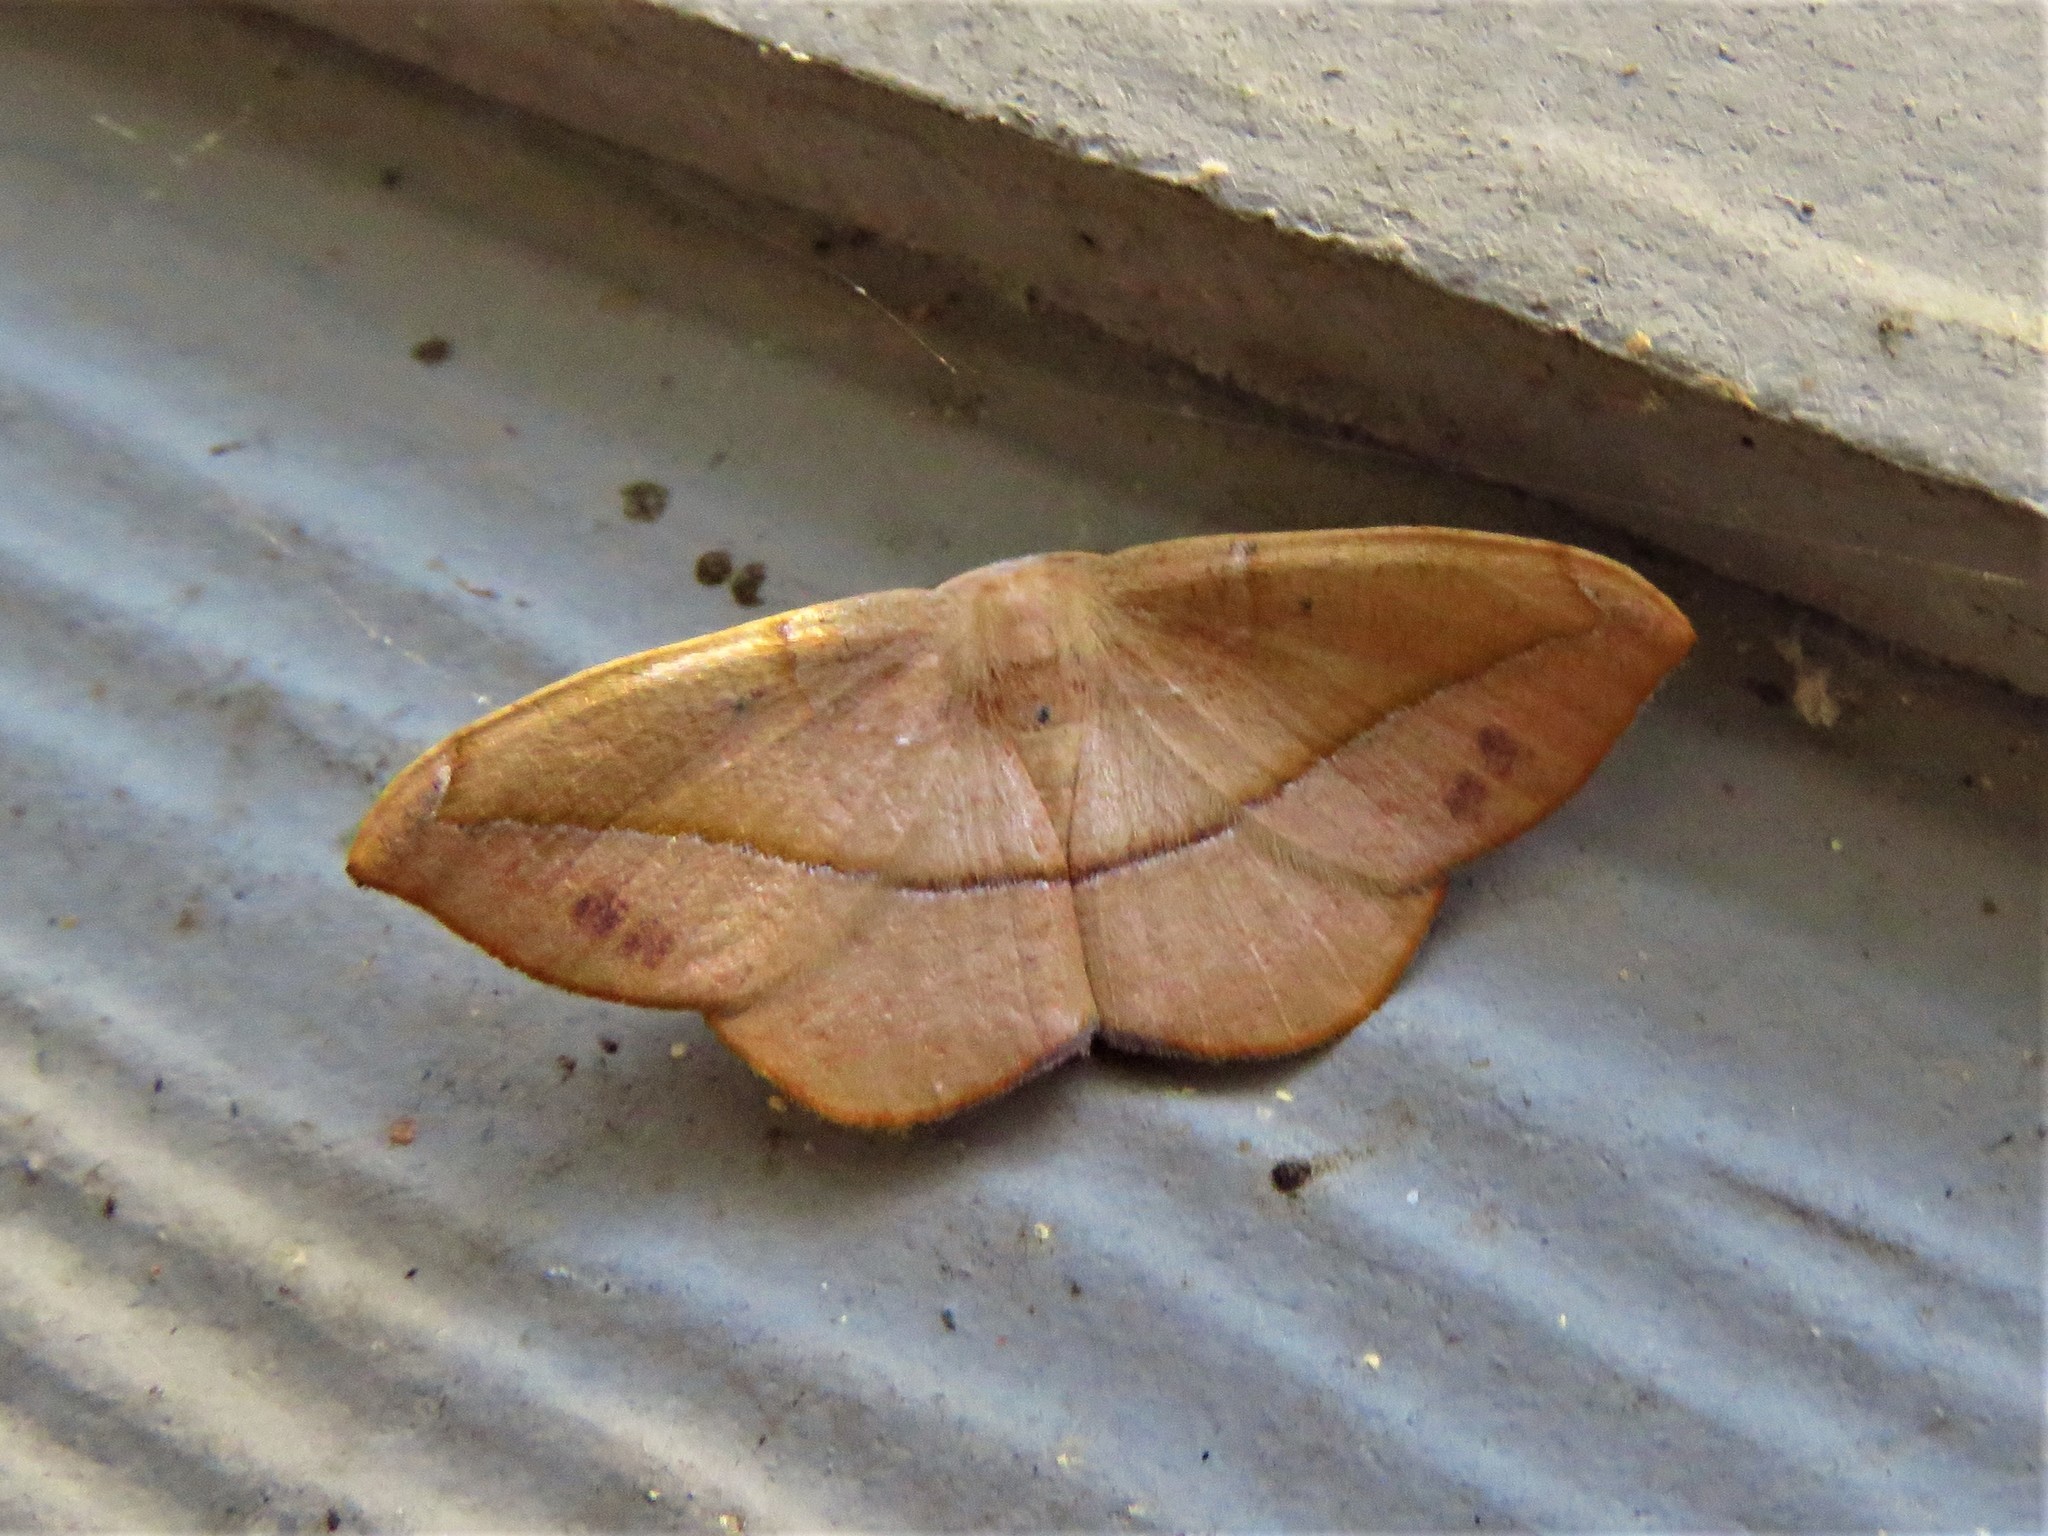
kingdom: Animalia
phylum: Arthropoda
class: Insecta
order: Lepidoptera
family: Geometridae
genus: Patalene
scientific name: Patalene olyzonaria
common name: Juniper geometer moth
